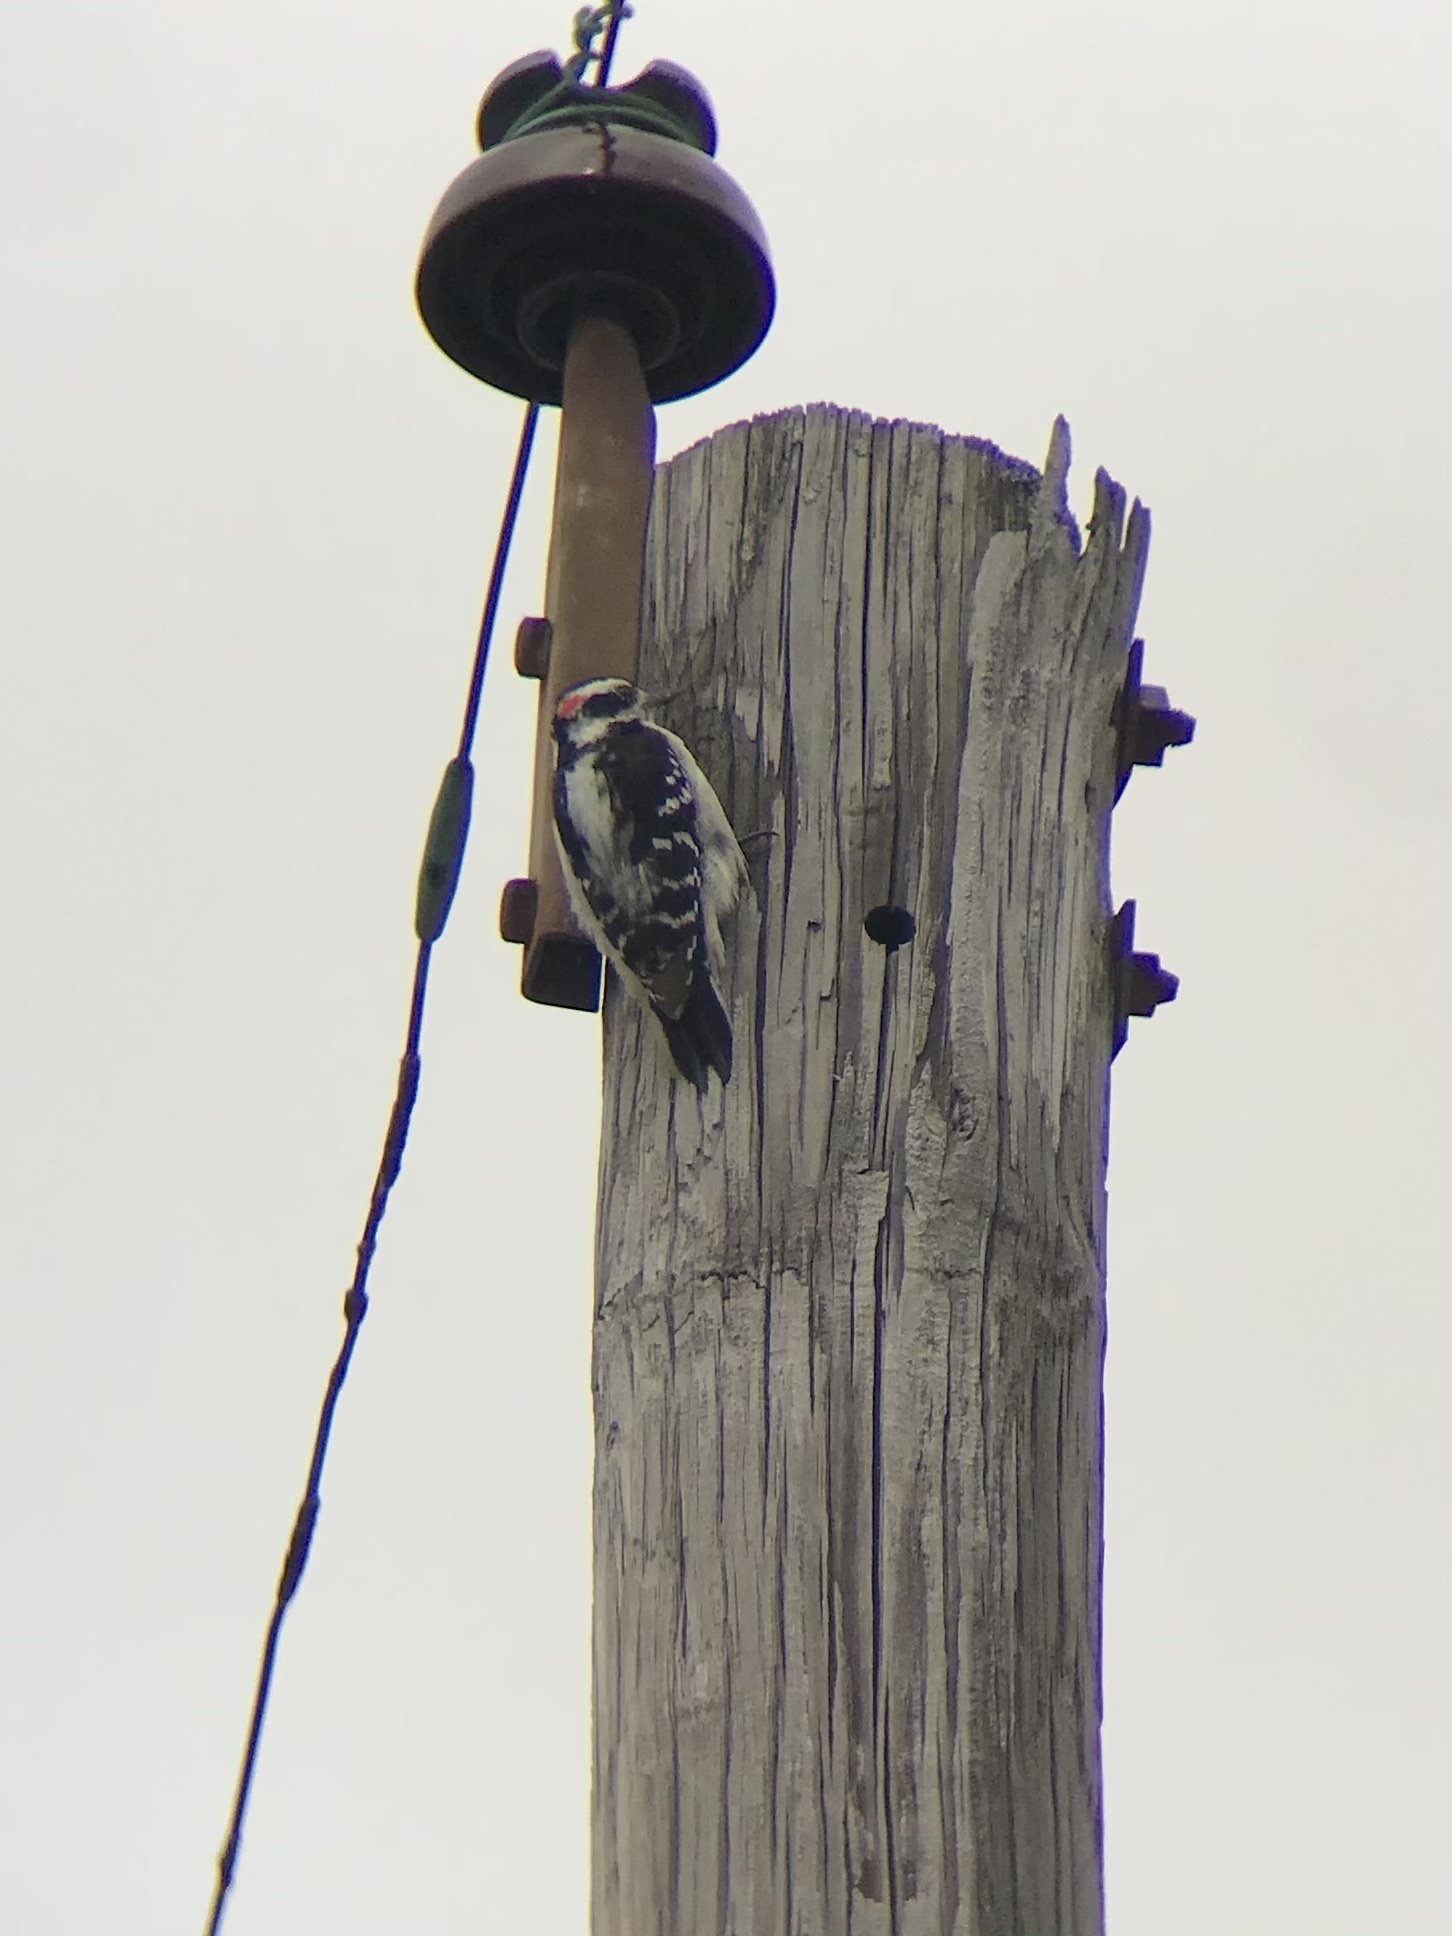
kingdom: Animalia
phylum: Chordata
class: Aves
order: Piciformes
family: Picidae
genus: Leuconotopicus
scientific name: Leuconotopicus villosus
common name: Hairy woodpecker
